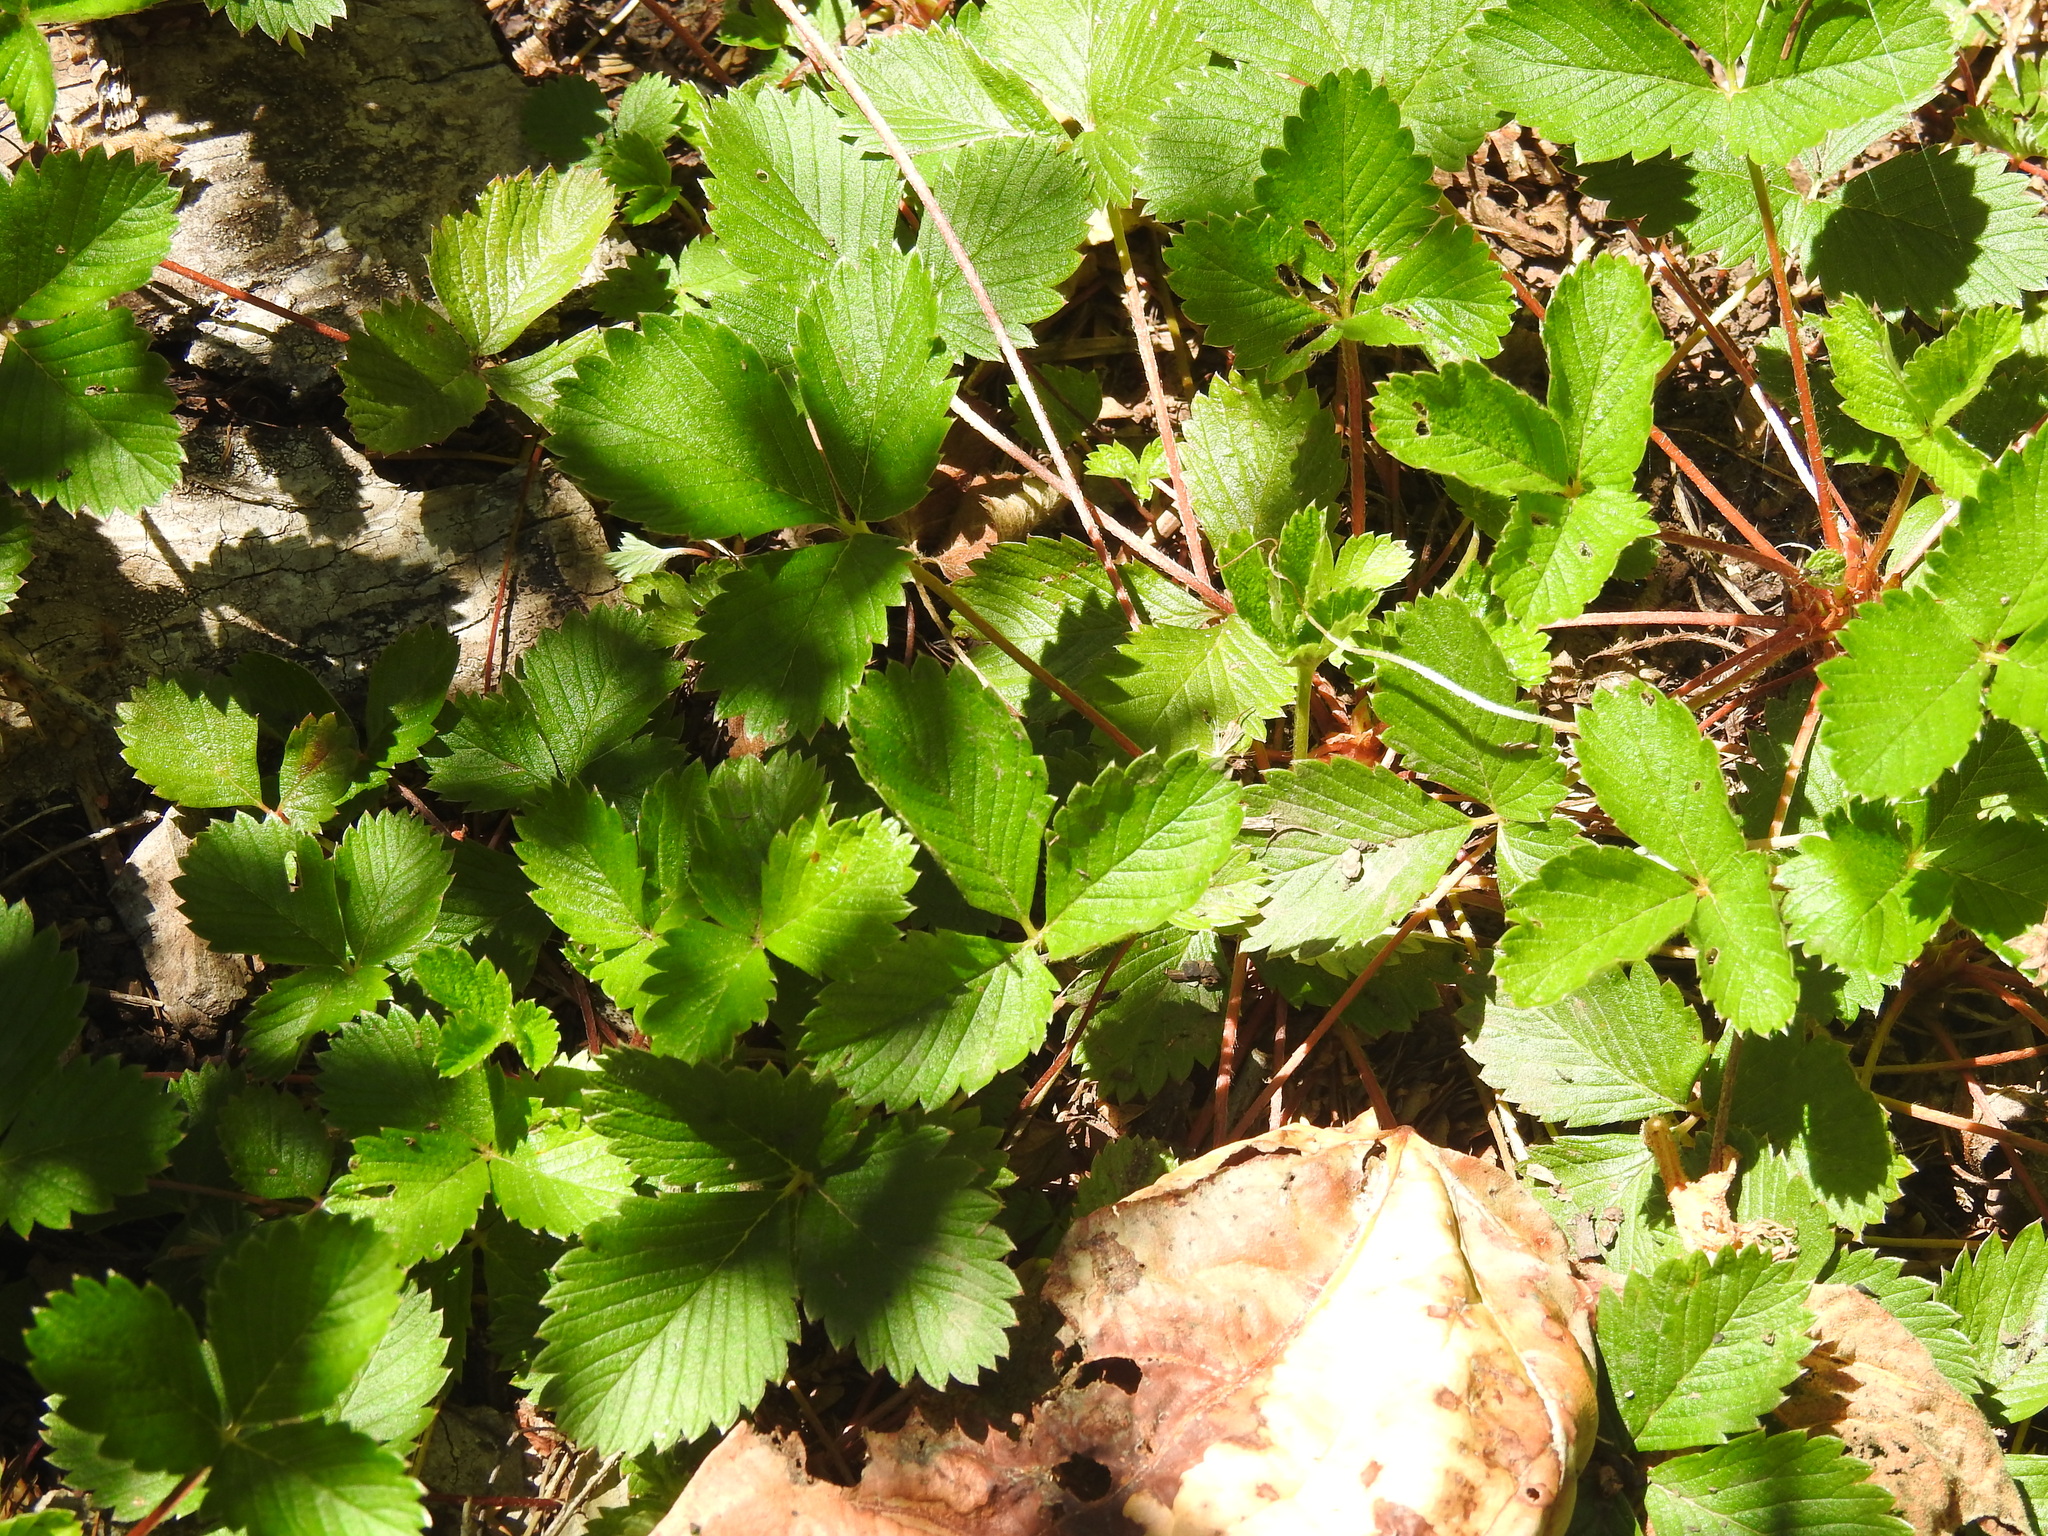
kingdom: Plantae
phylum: Tracheophyta
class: Magnoliopsida
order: Rosales
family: Rosaceae
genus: Fragaria
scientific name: Fragaria vesca
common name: Wild strawberry
